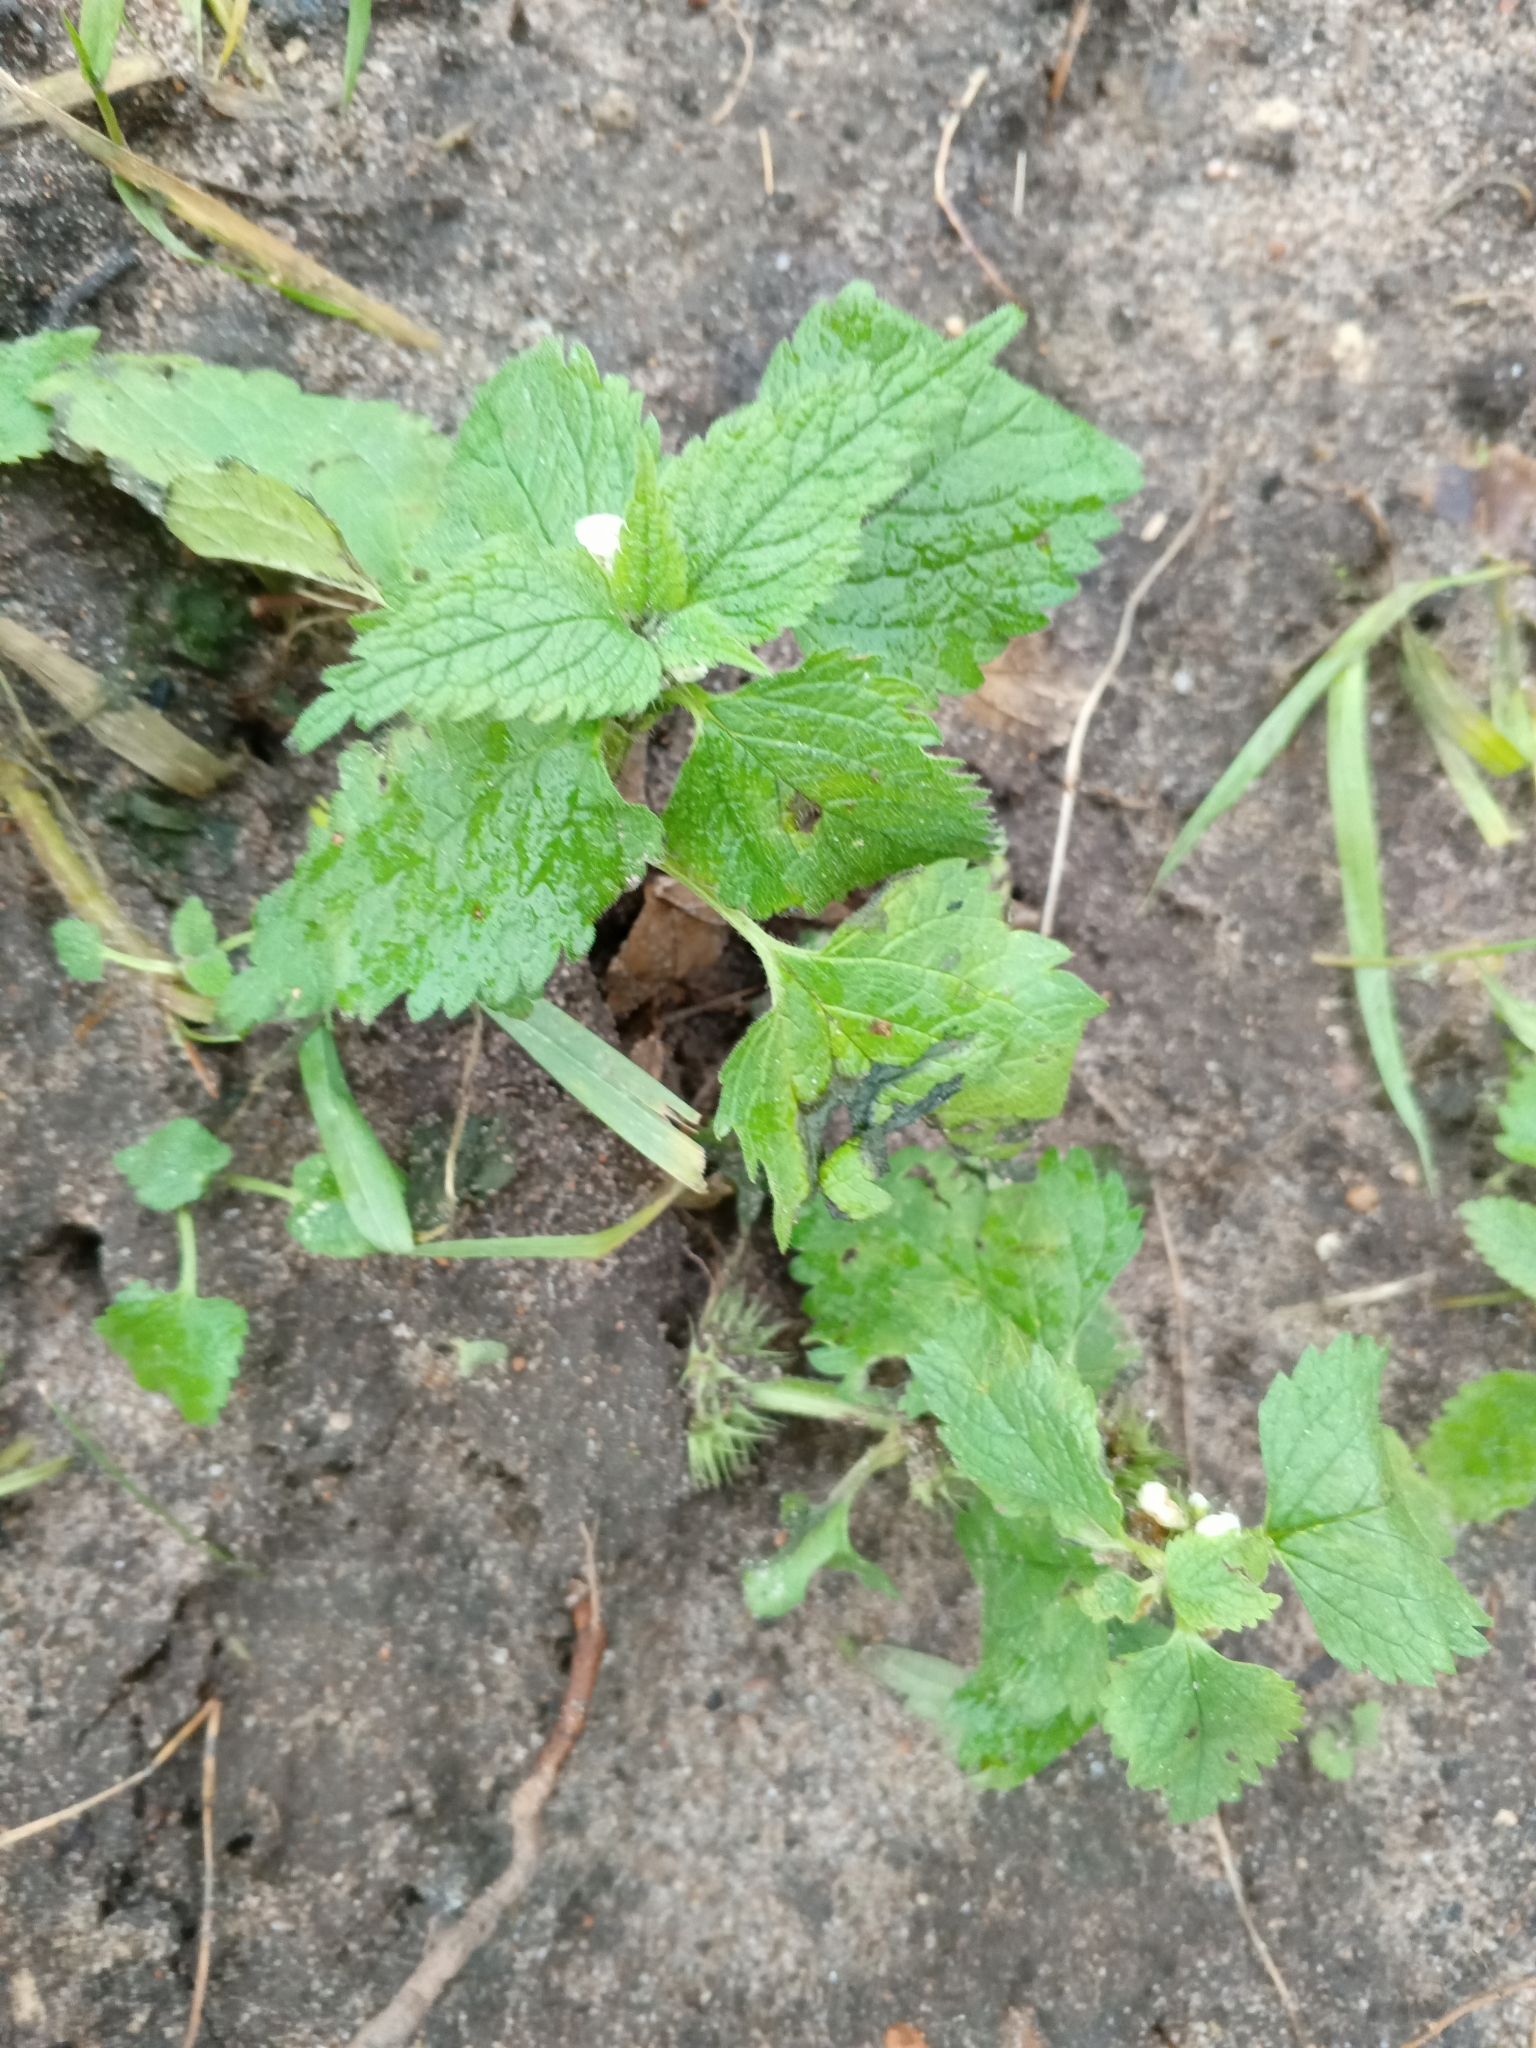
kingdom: Plantae
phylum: Tracheophyta
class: Magnoliopsida
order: Lamiales
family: Lamiaceae
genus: Lamium
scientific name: Lamium album
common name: White dead-nettle
